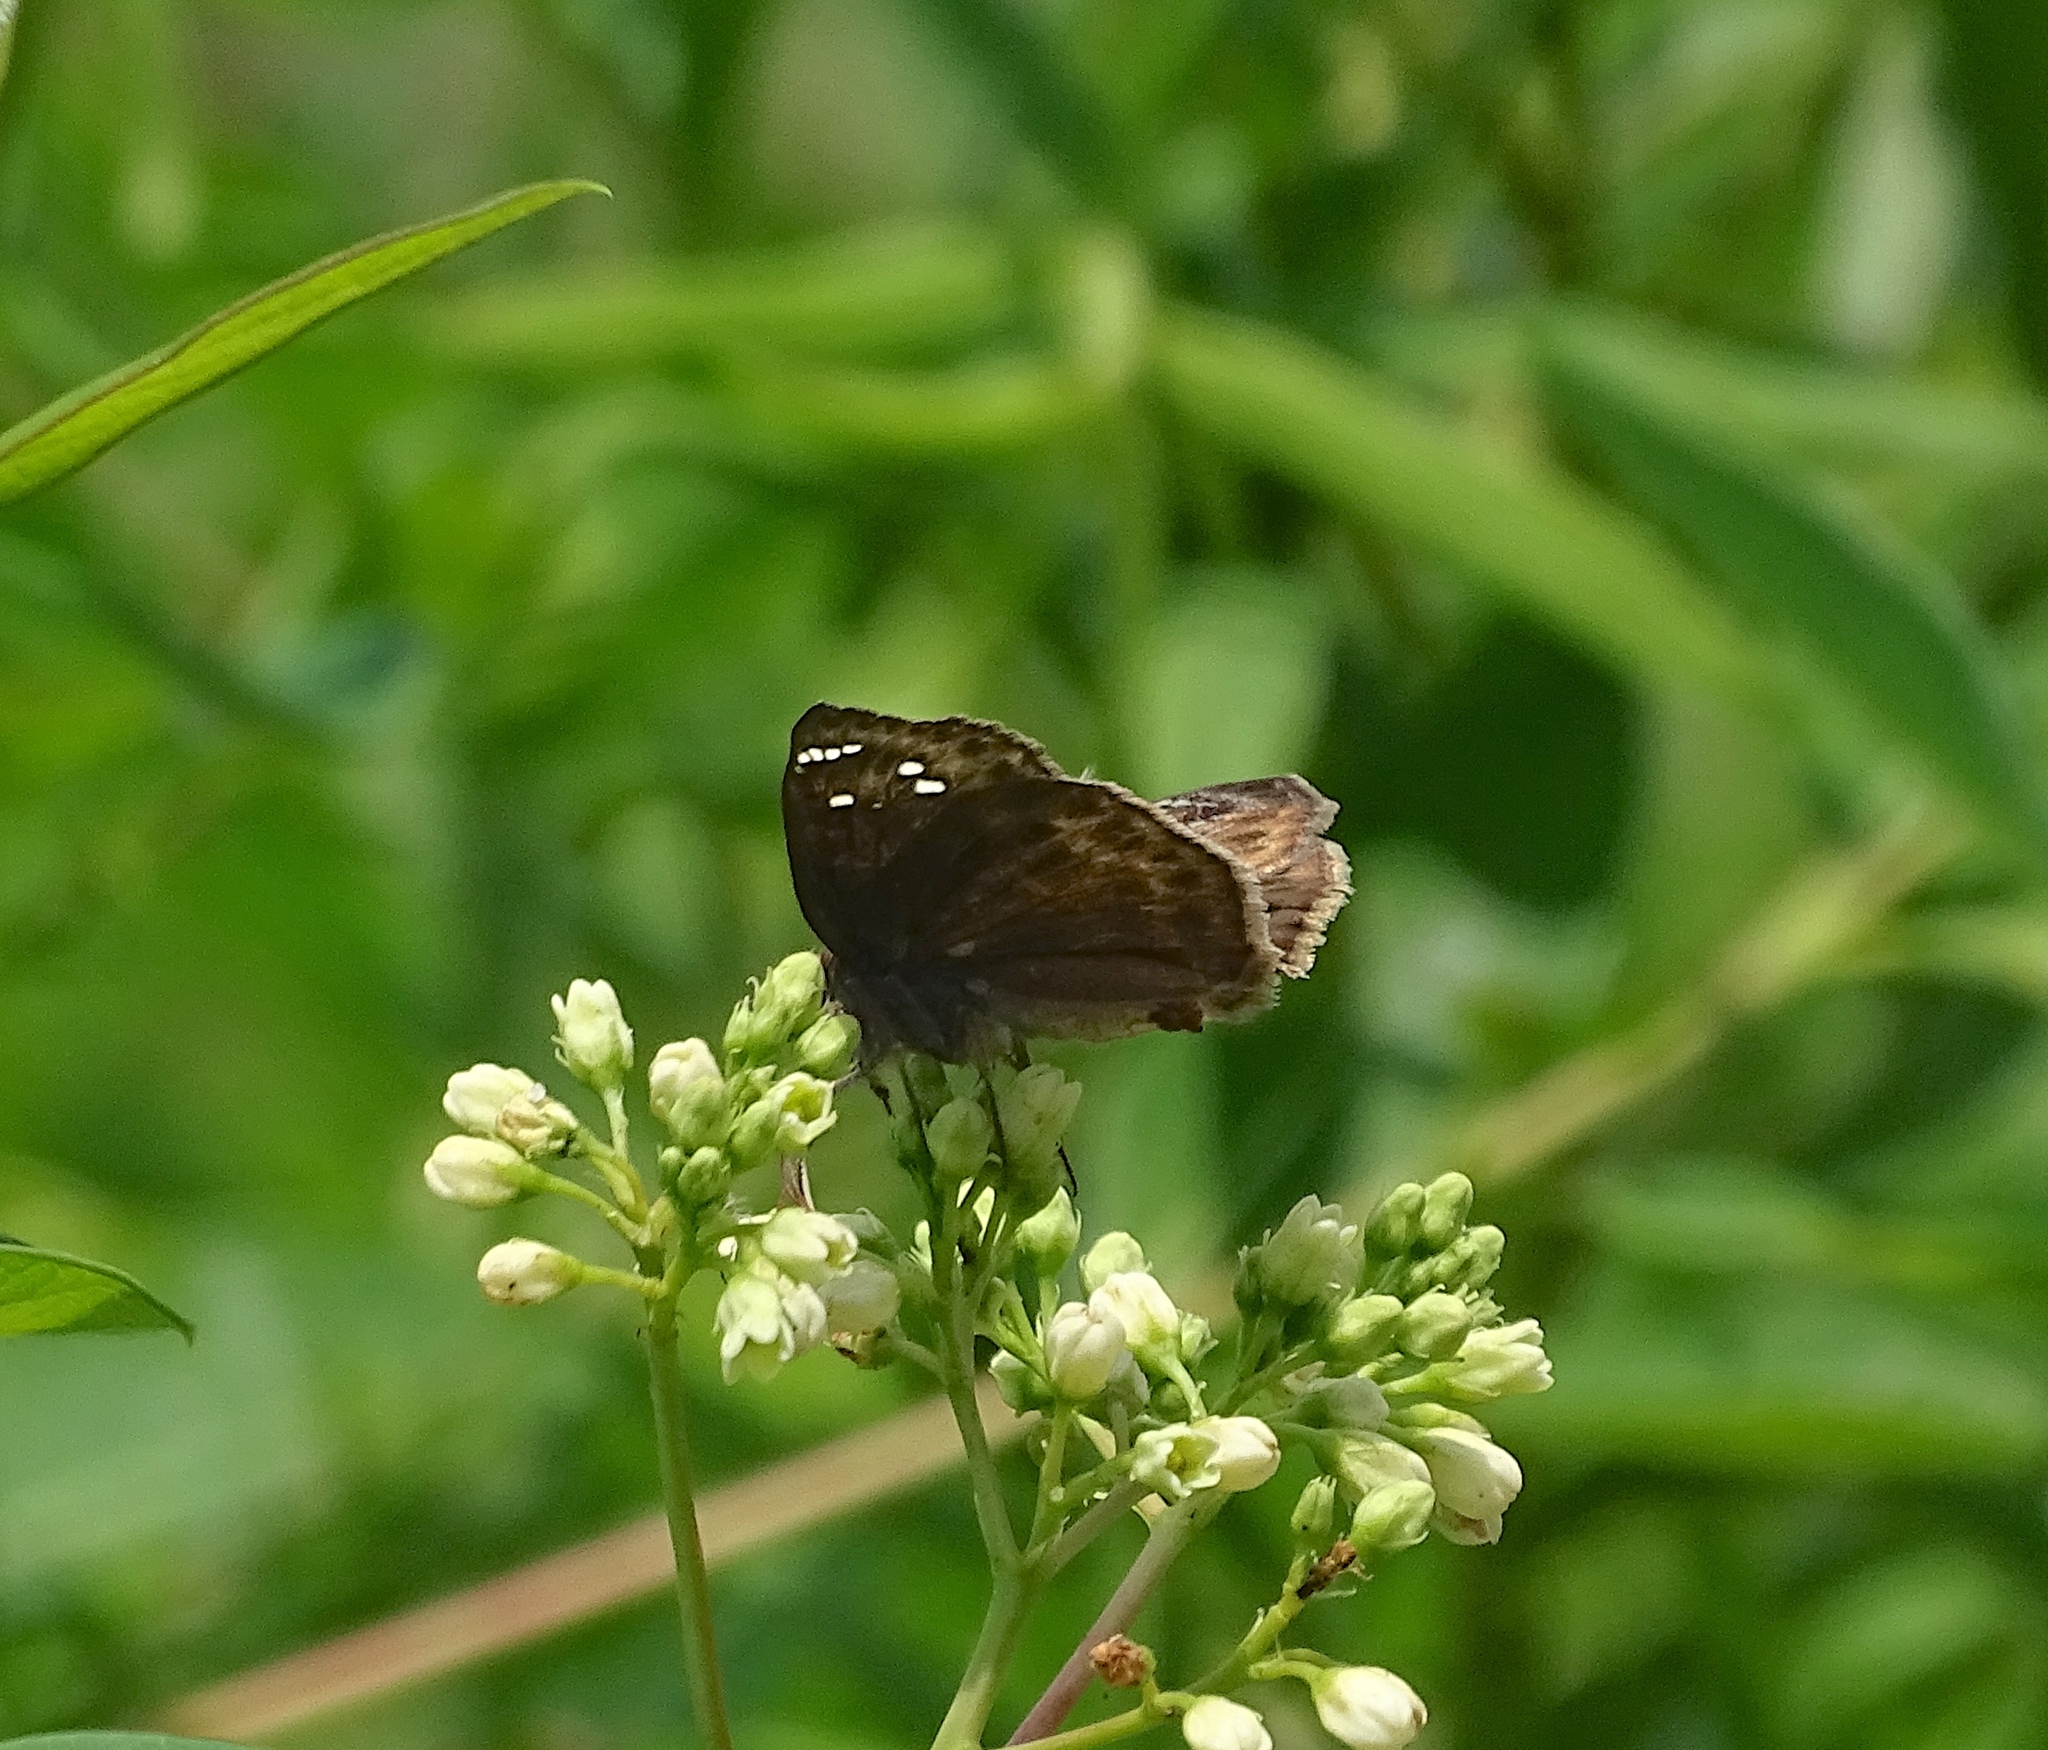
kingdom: Animalia
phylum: Arthropoda
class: Insecta
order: Lepidoptera
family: Hesperiidae
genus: Erynnis
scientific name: Erynnis horatius
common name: Horace's duskywing
